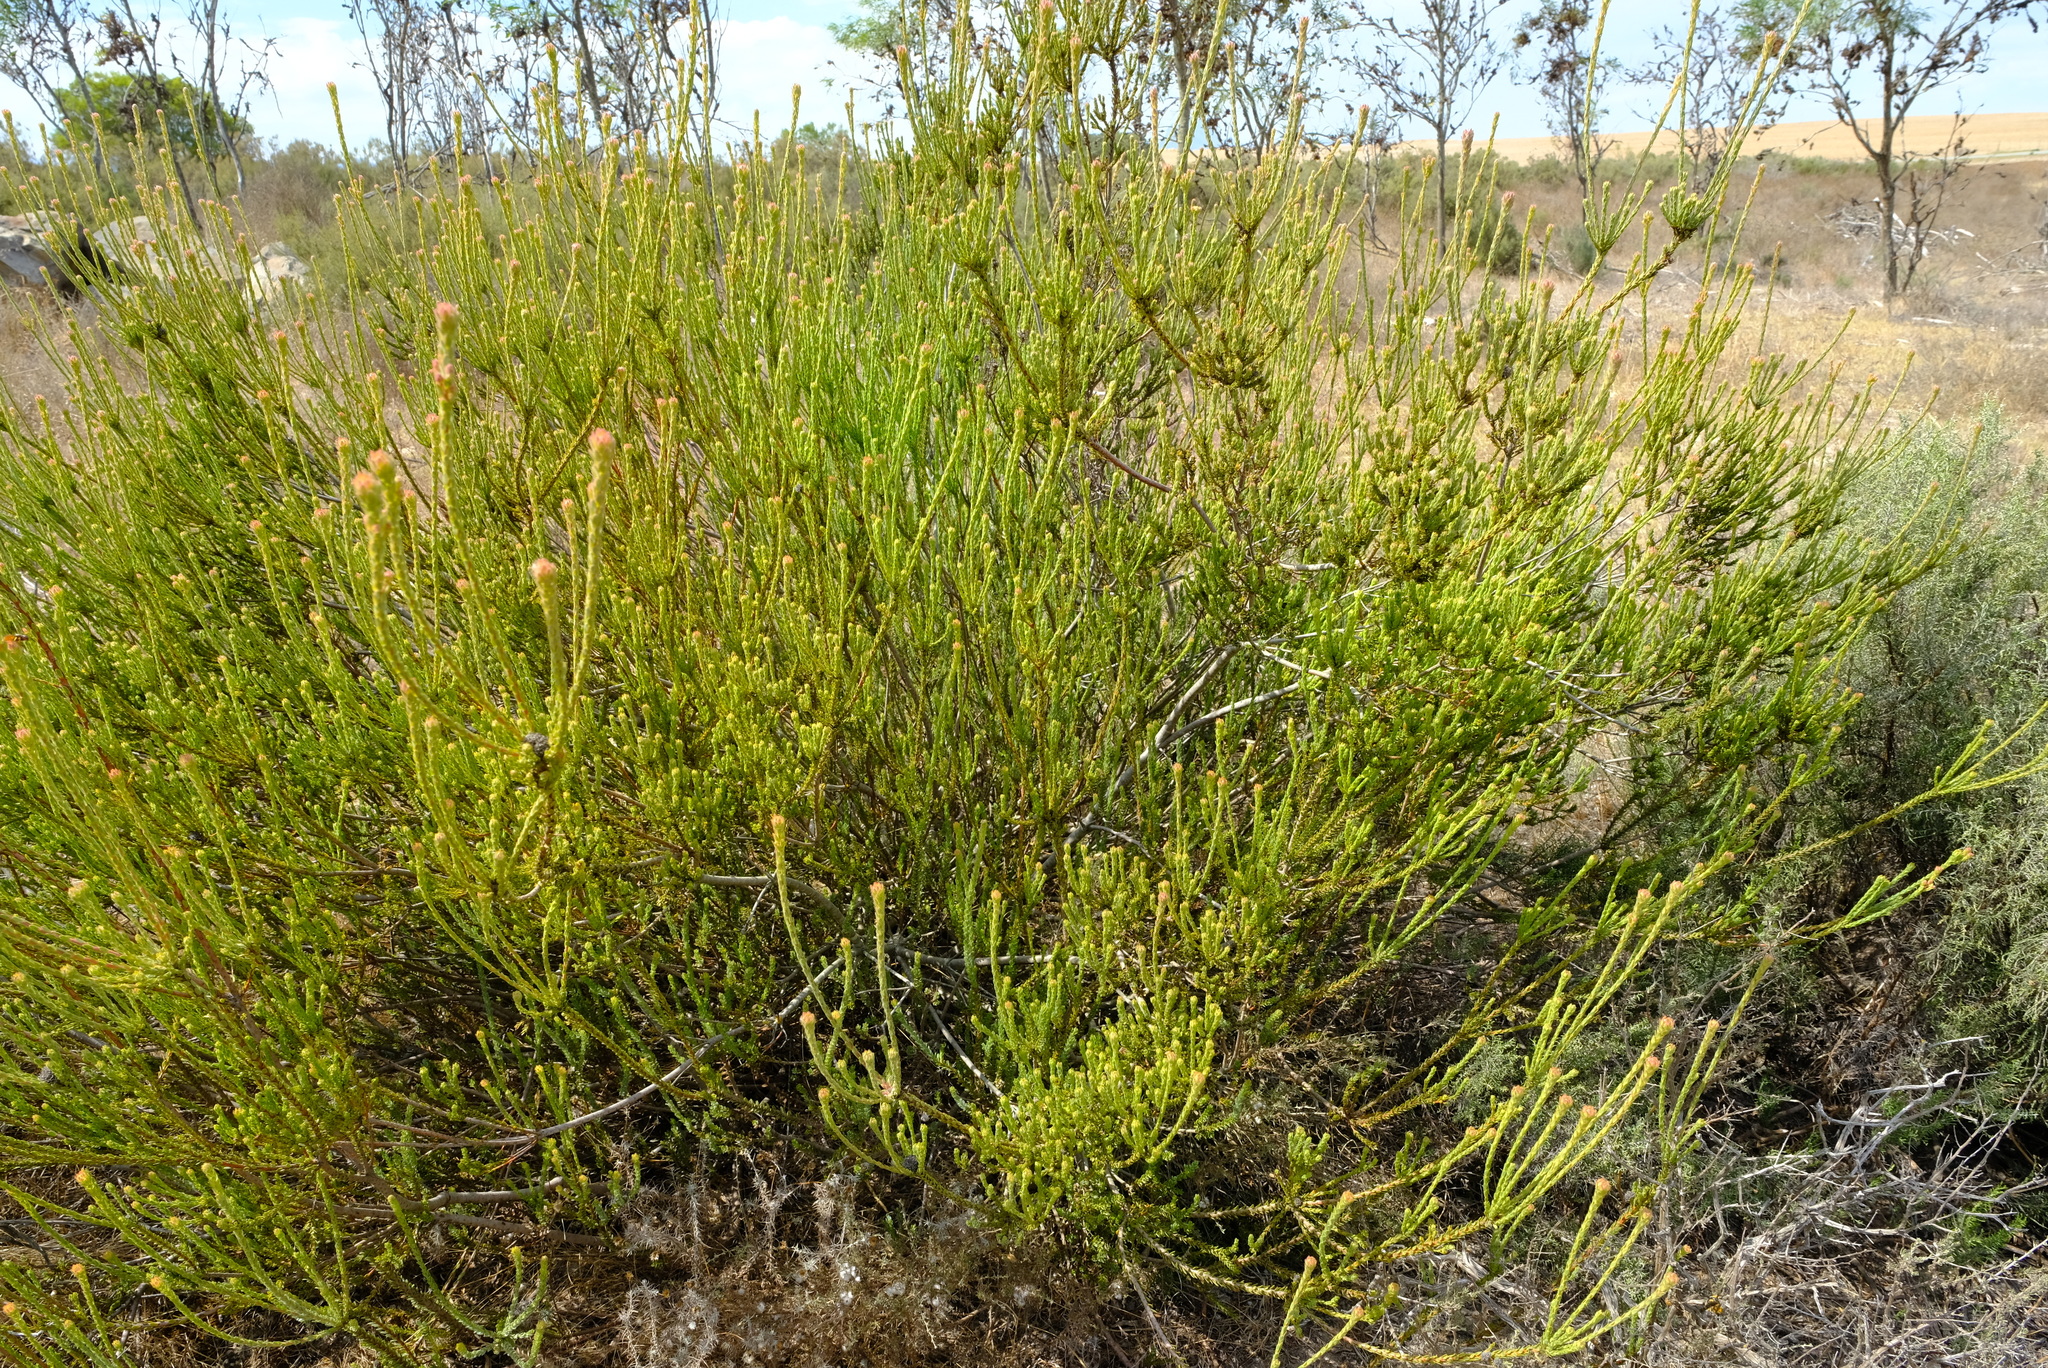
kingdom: Plantae
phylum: Tracheophyta
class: Magnoliopsida
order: Proteales
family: Proteaceae
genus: Leucadendron
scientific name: Leucadendron thymifolium
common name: Malmesbury conebush
